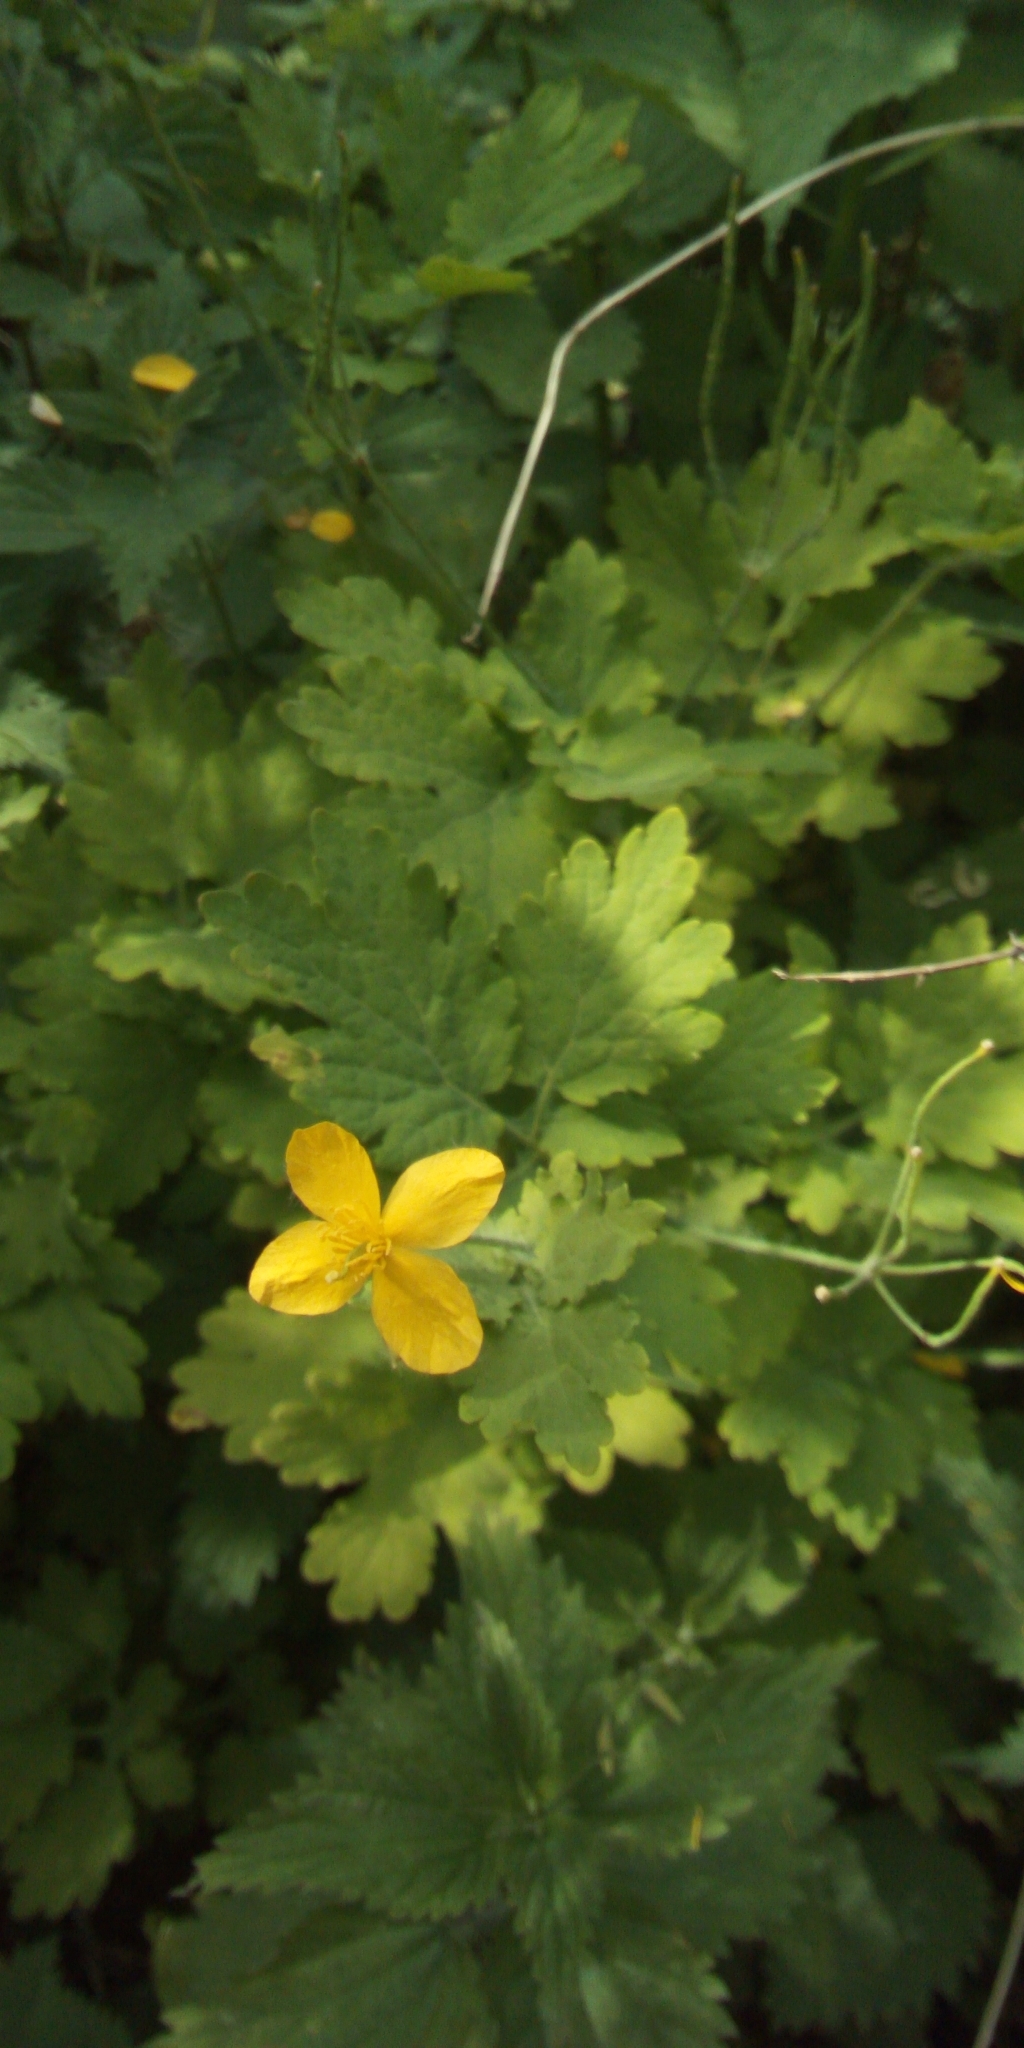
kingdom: Plantae
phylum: Tracheophyta
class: Magnoliopsida
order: Ranunculales
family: Papaveraceae
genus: Chelidonium
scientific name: Chelidonium majus
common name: Greater celandine
